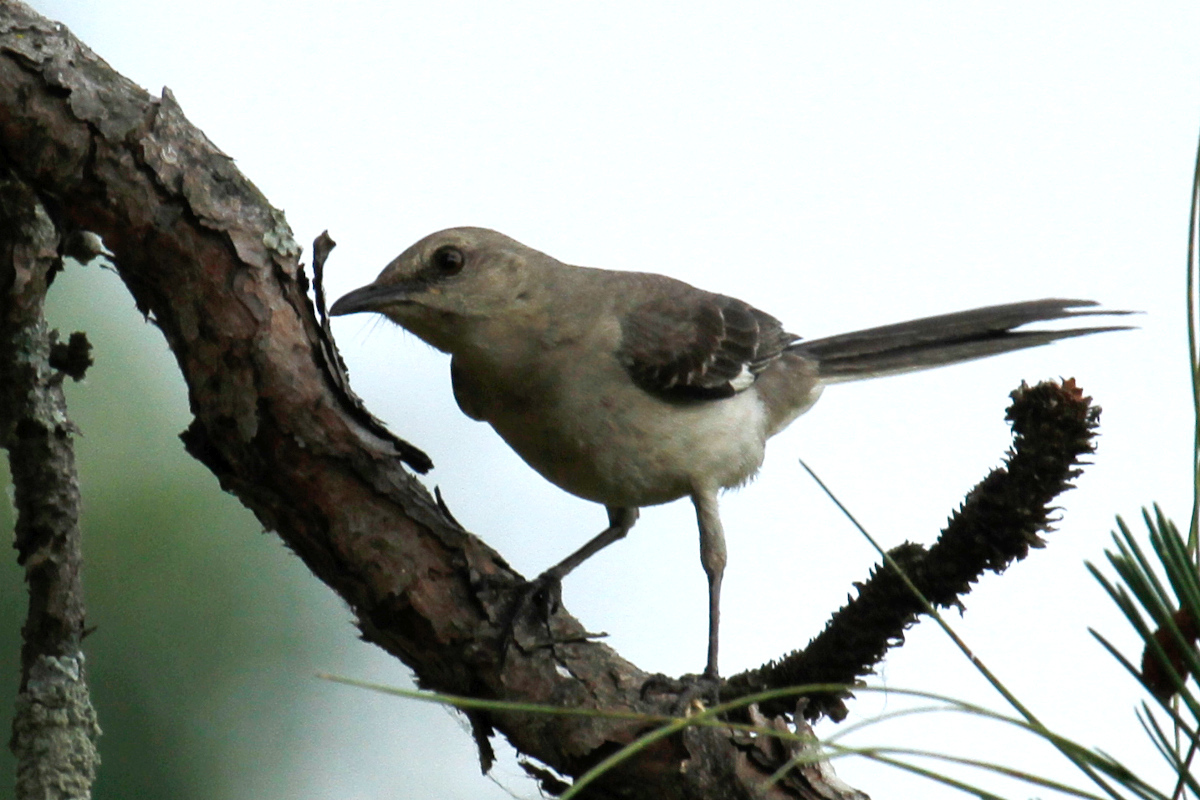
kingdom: Animalia
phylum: Chordata
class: Aves
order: Passeriformes
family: Mimidae
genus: Mimus
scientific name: Mimus polyglottos
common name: Northern mockingbird
